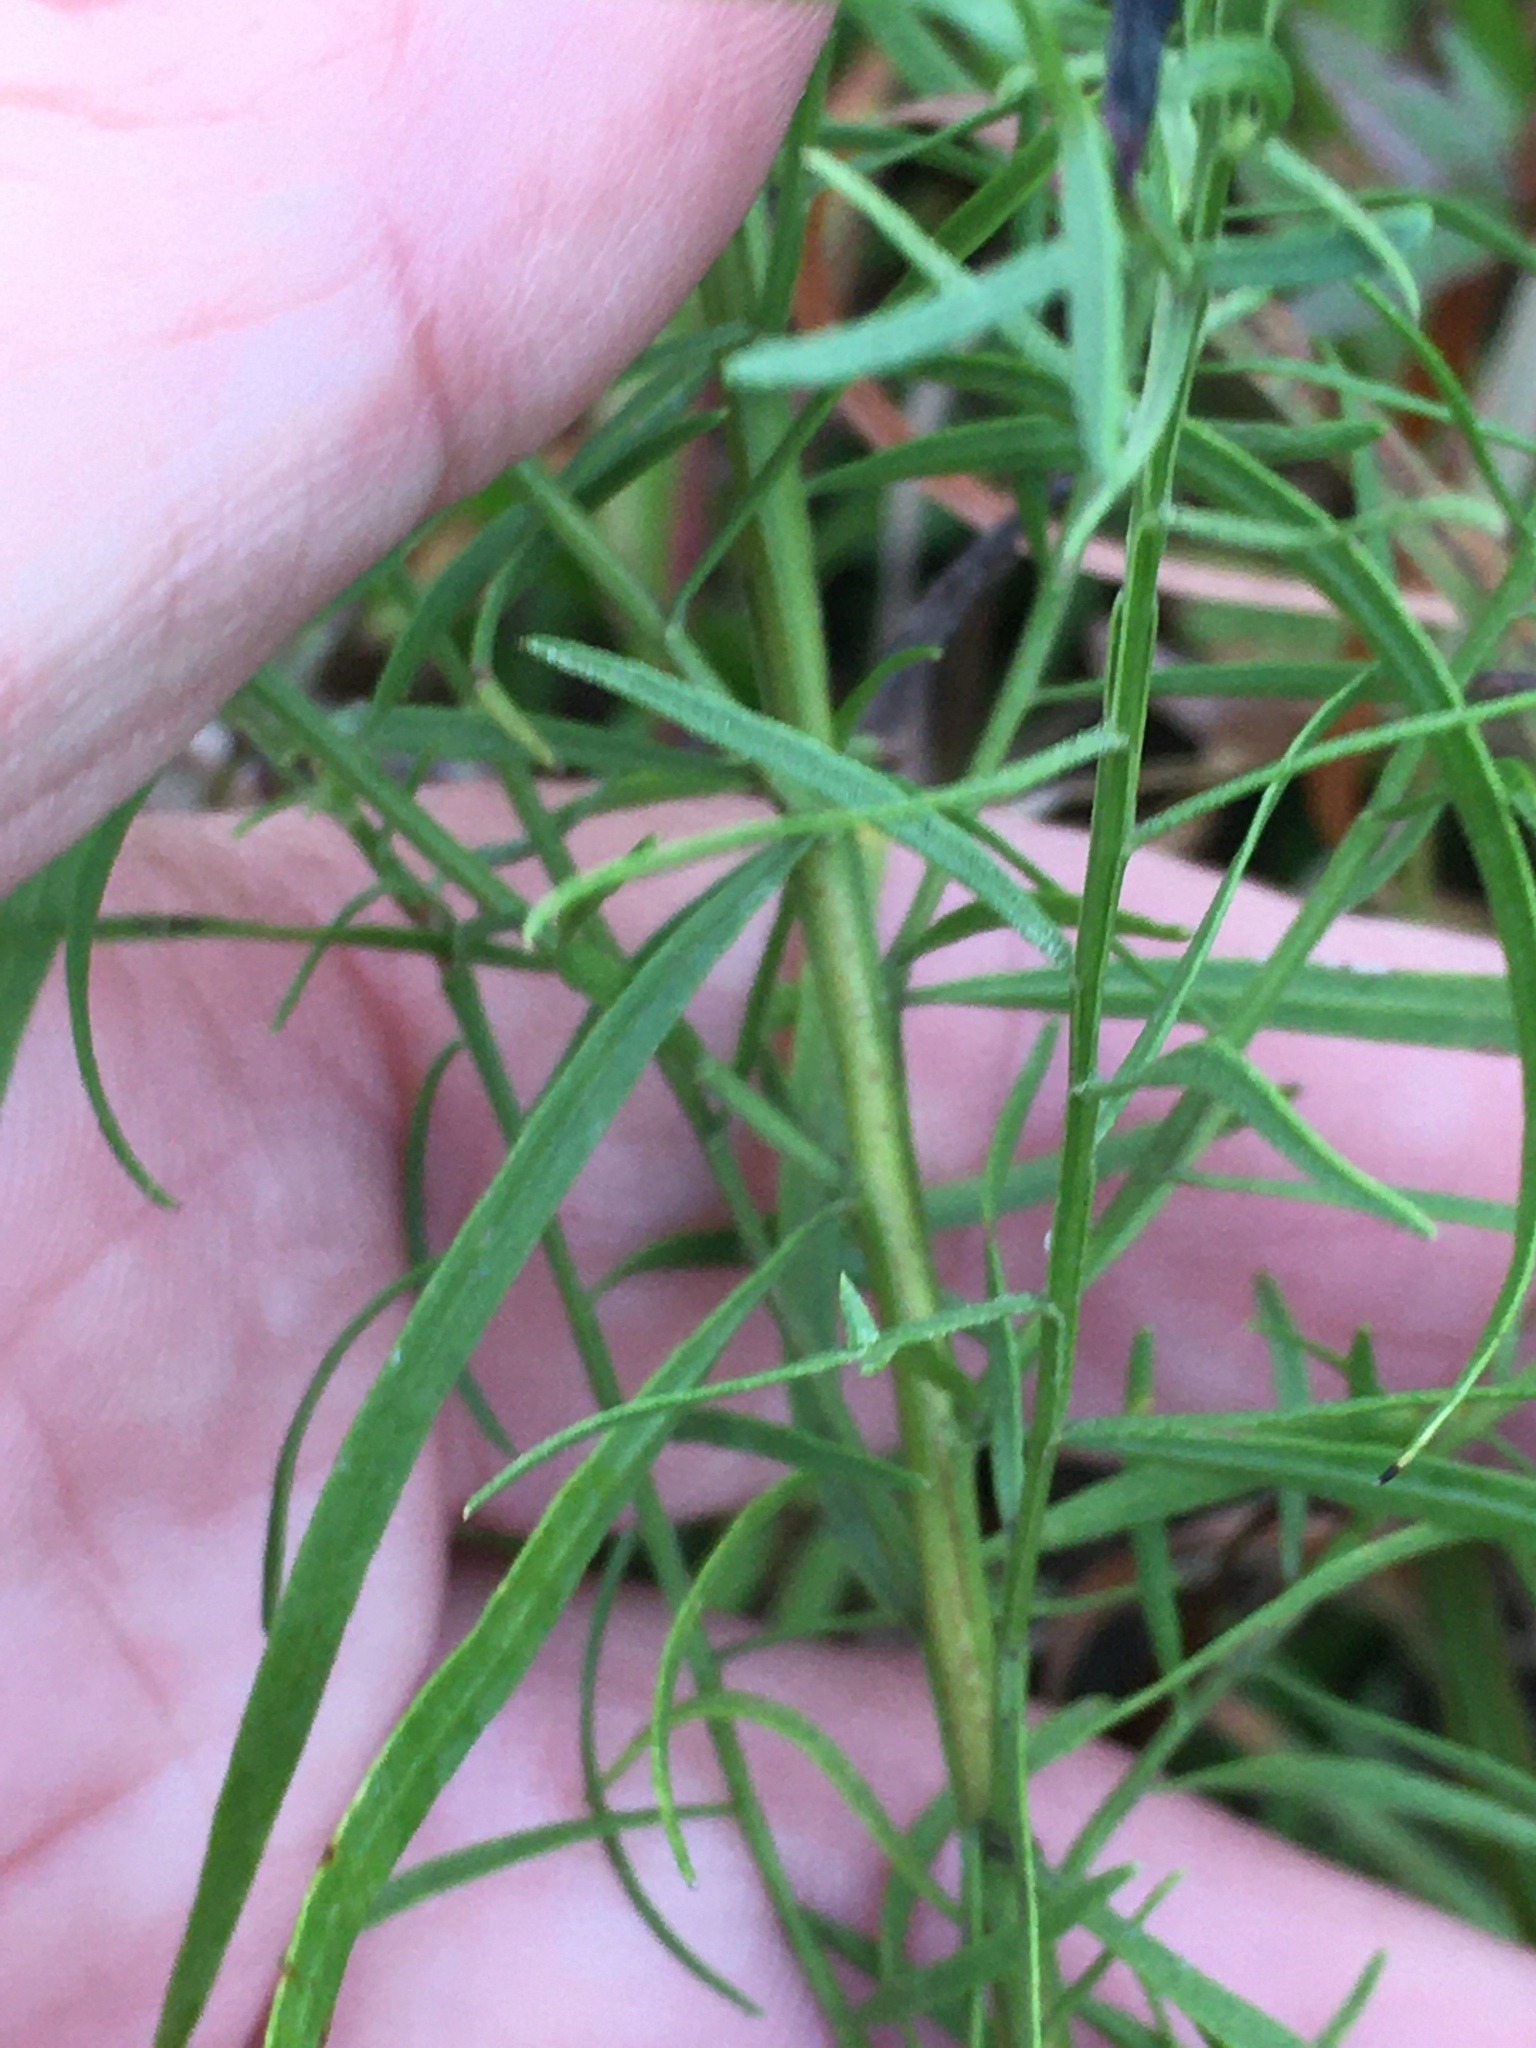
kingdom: Plantae
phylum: Tracheophyta
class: Magnoliopsida
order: Asterales
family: Asteraceae
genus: Euthamia
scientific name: Euthamia caroliniana
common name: Coastal plain goldentop
